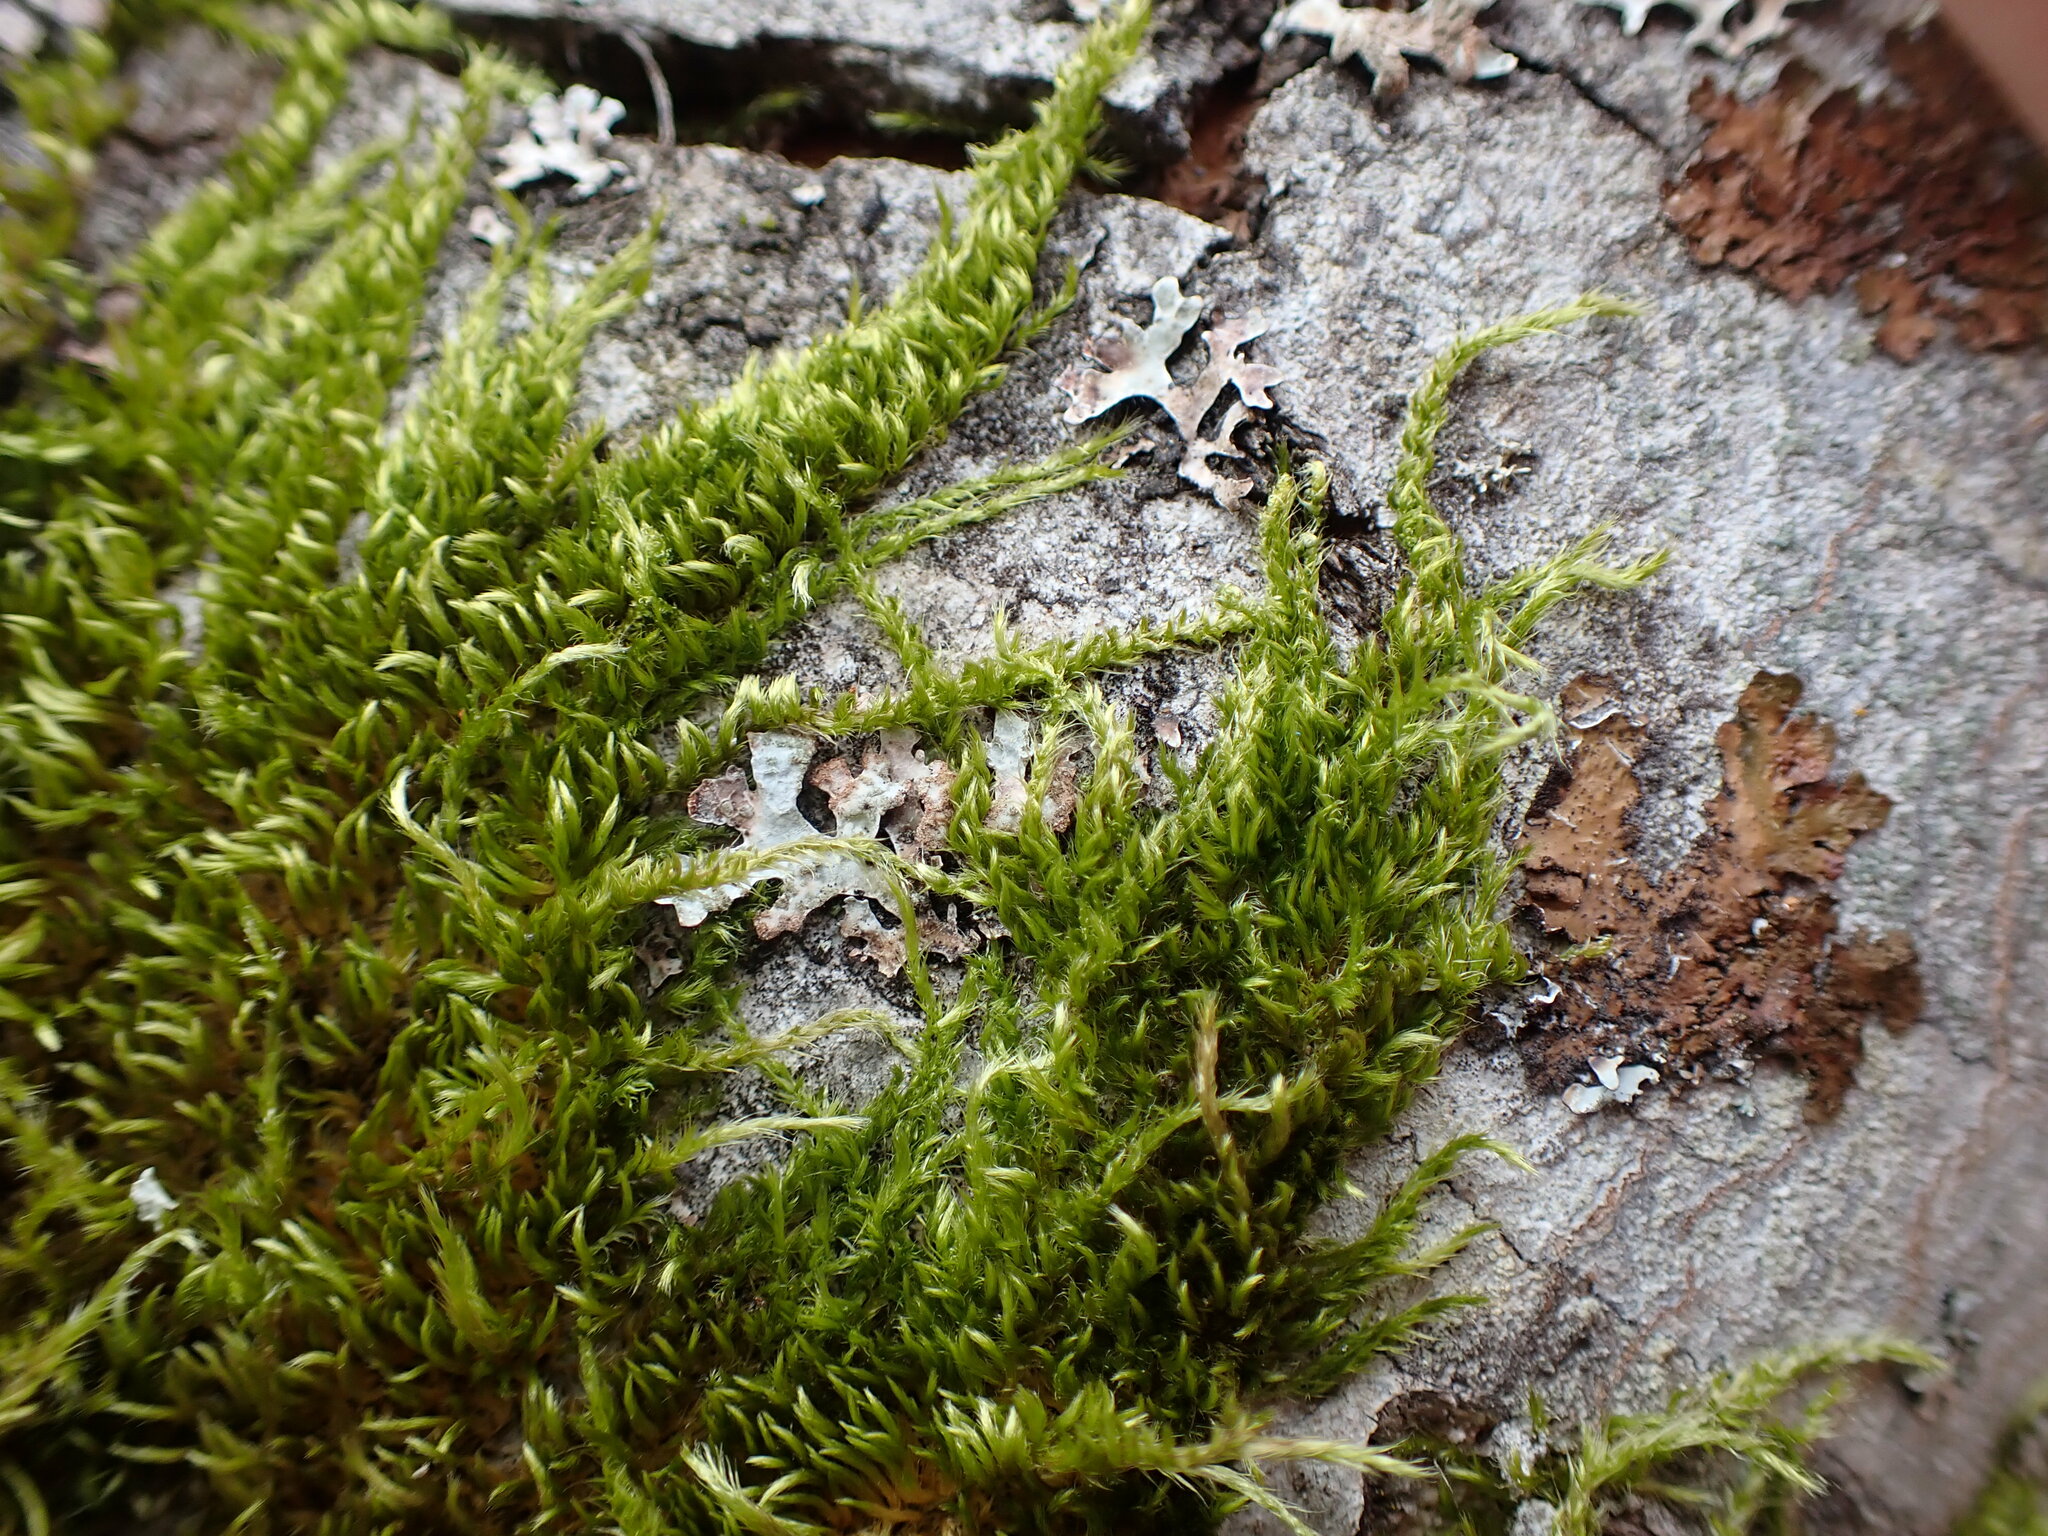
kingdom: Plantae
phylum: Bryophyta
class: Bryopsida
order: Hypnales
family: Brachytheciaceae
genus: Homalothecium
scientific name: Homalothecium nuttallii
